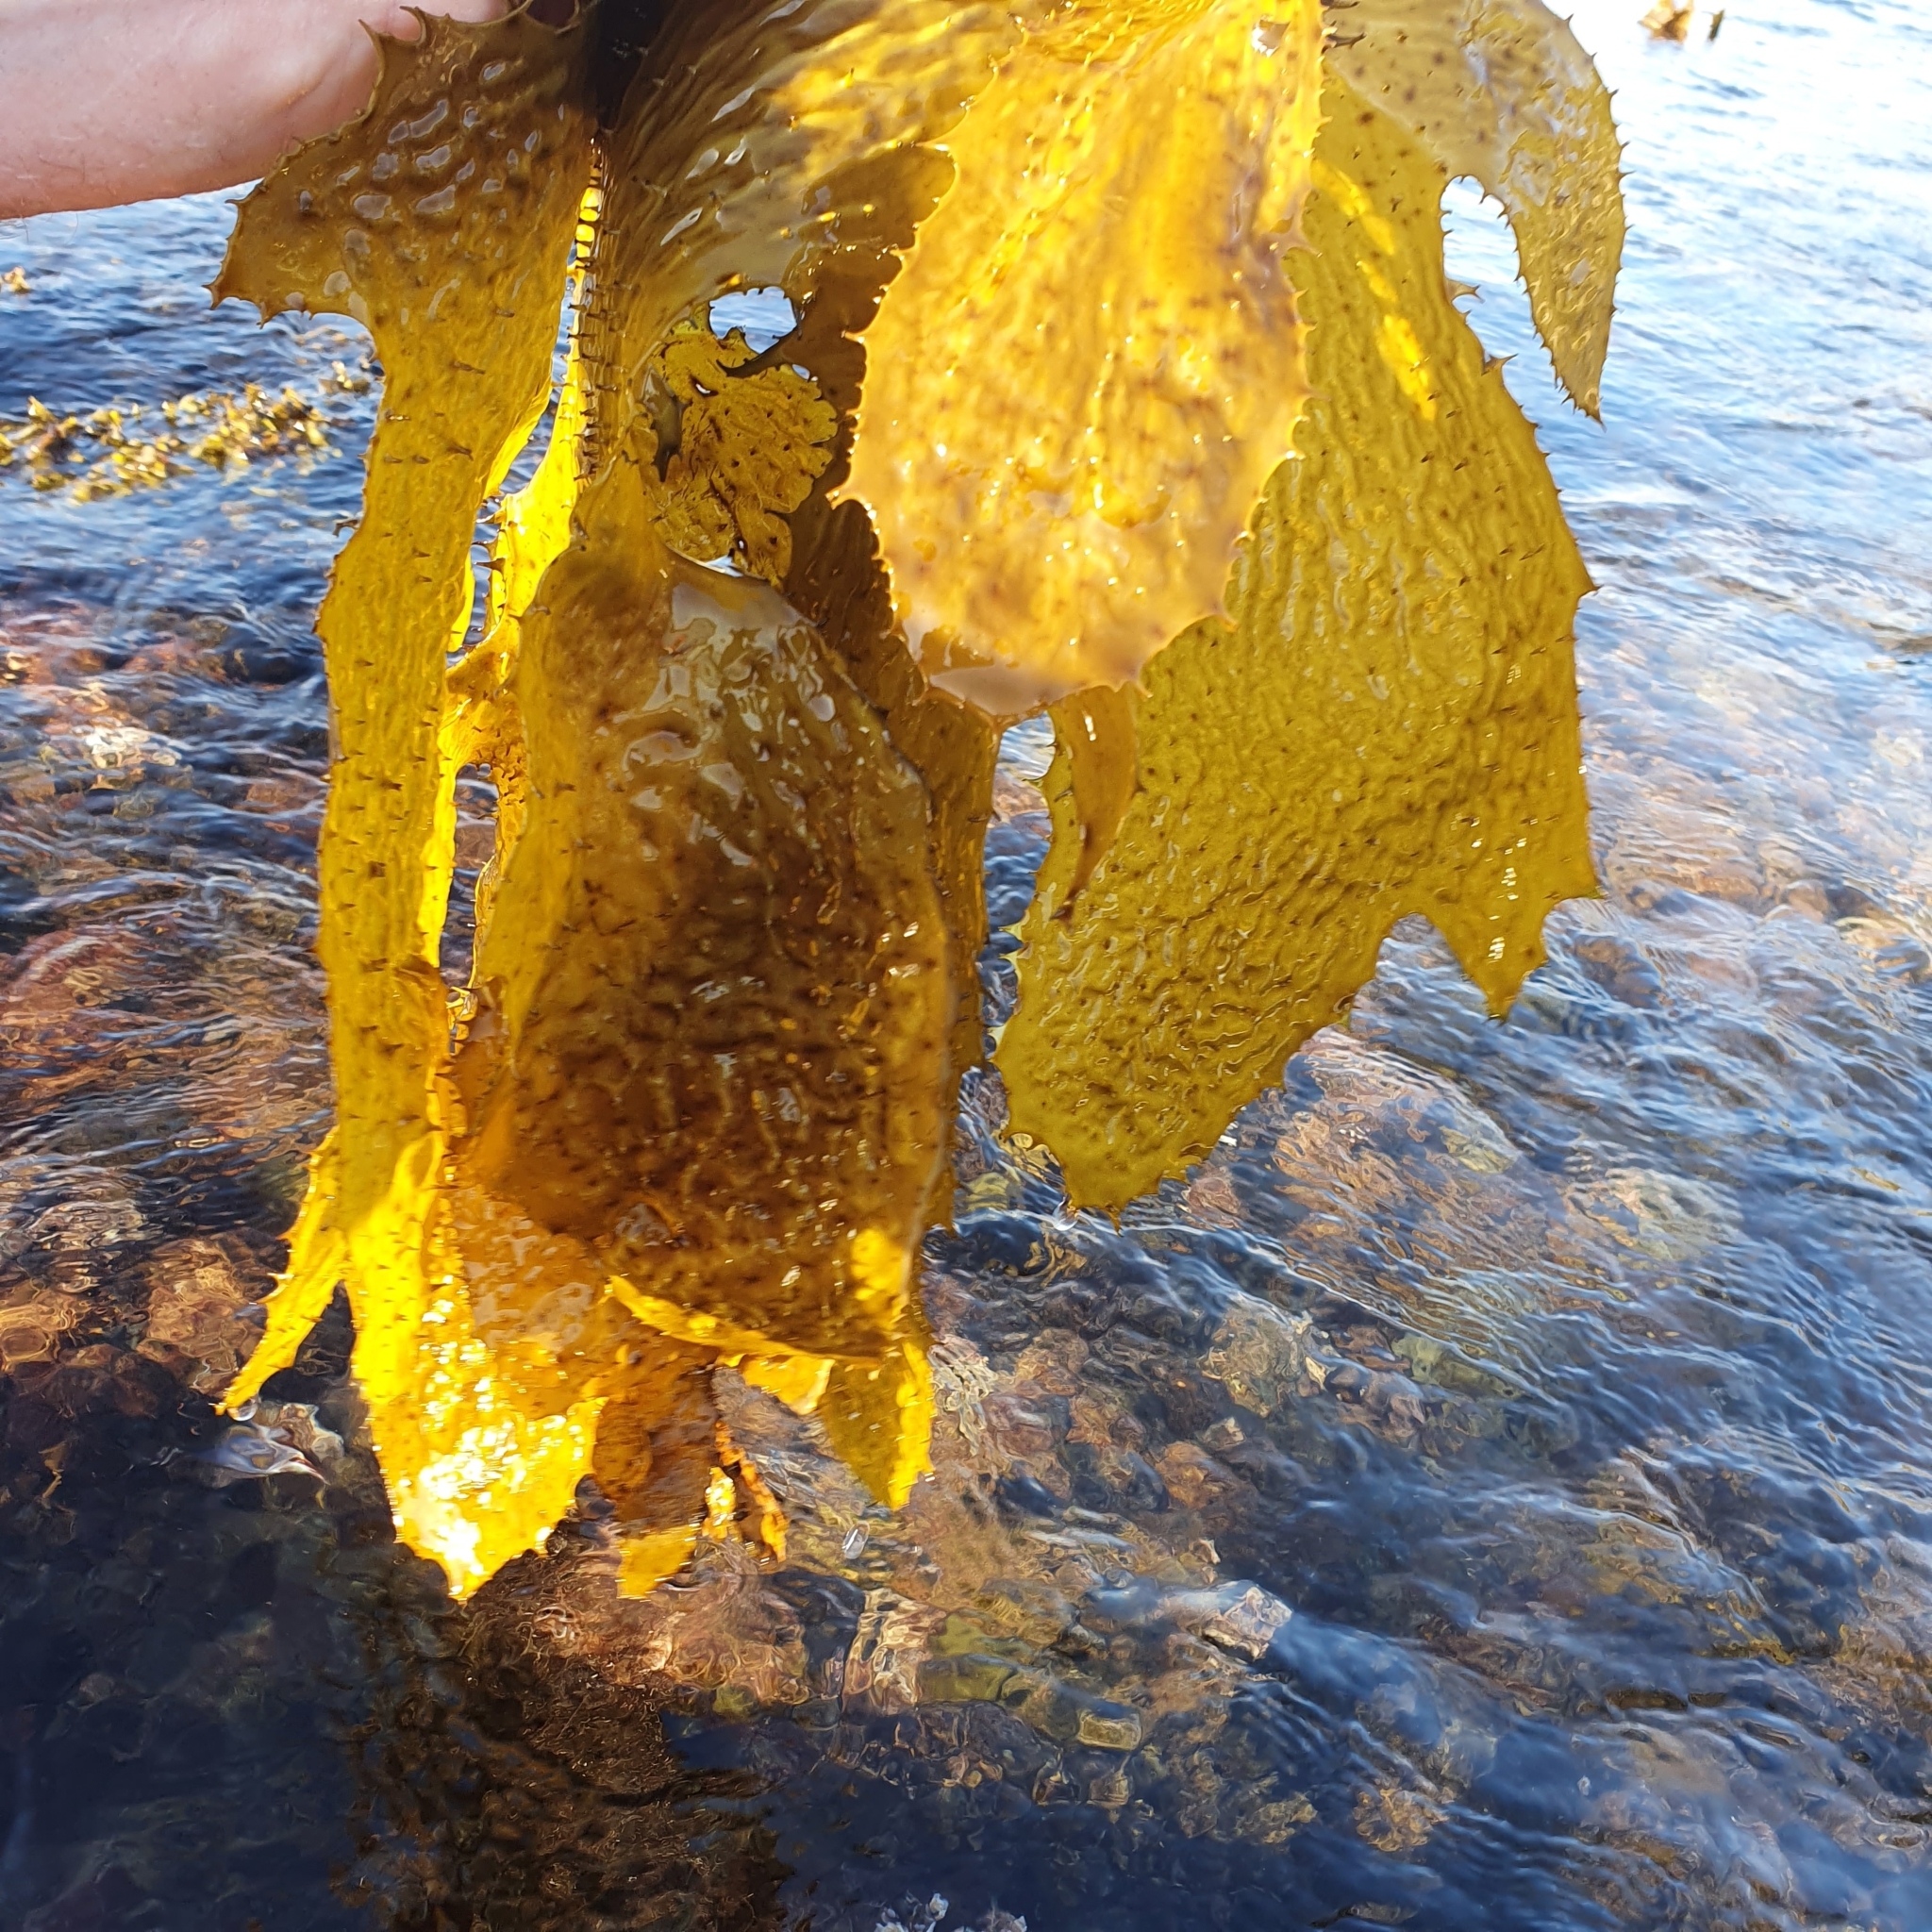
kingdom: Chromista
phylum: Ochrophyta
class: Phaeophyceae
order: Laminariales
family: Lessoniaceae
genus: Ecklonia
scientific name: Ecklonia radiata
